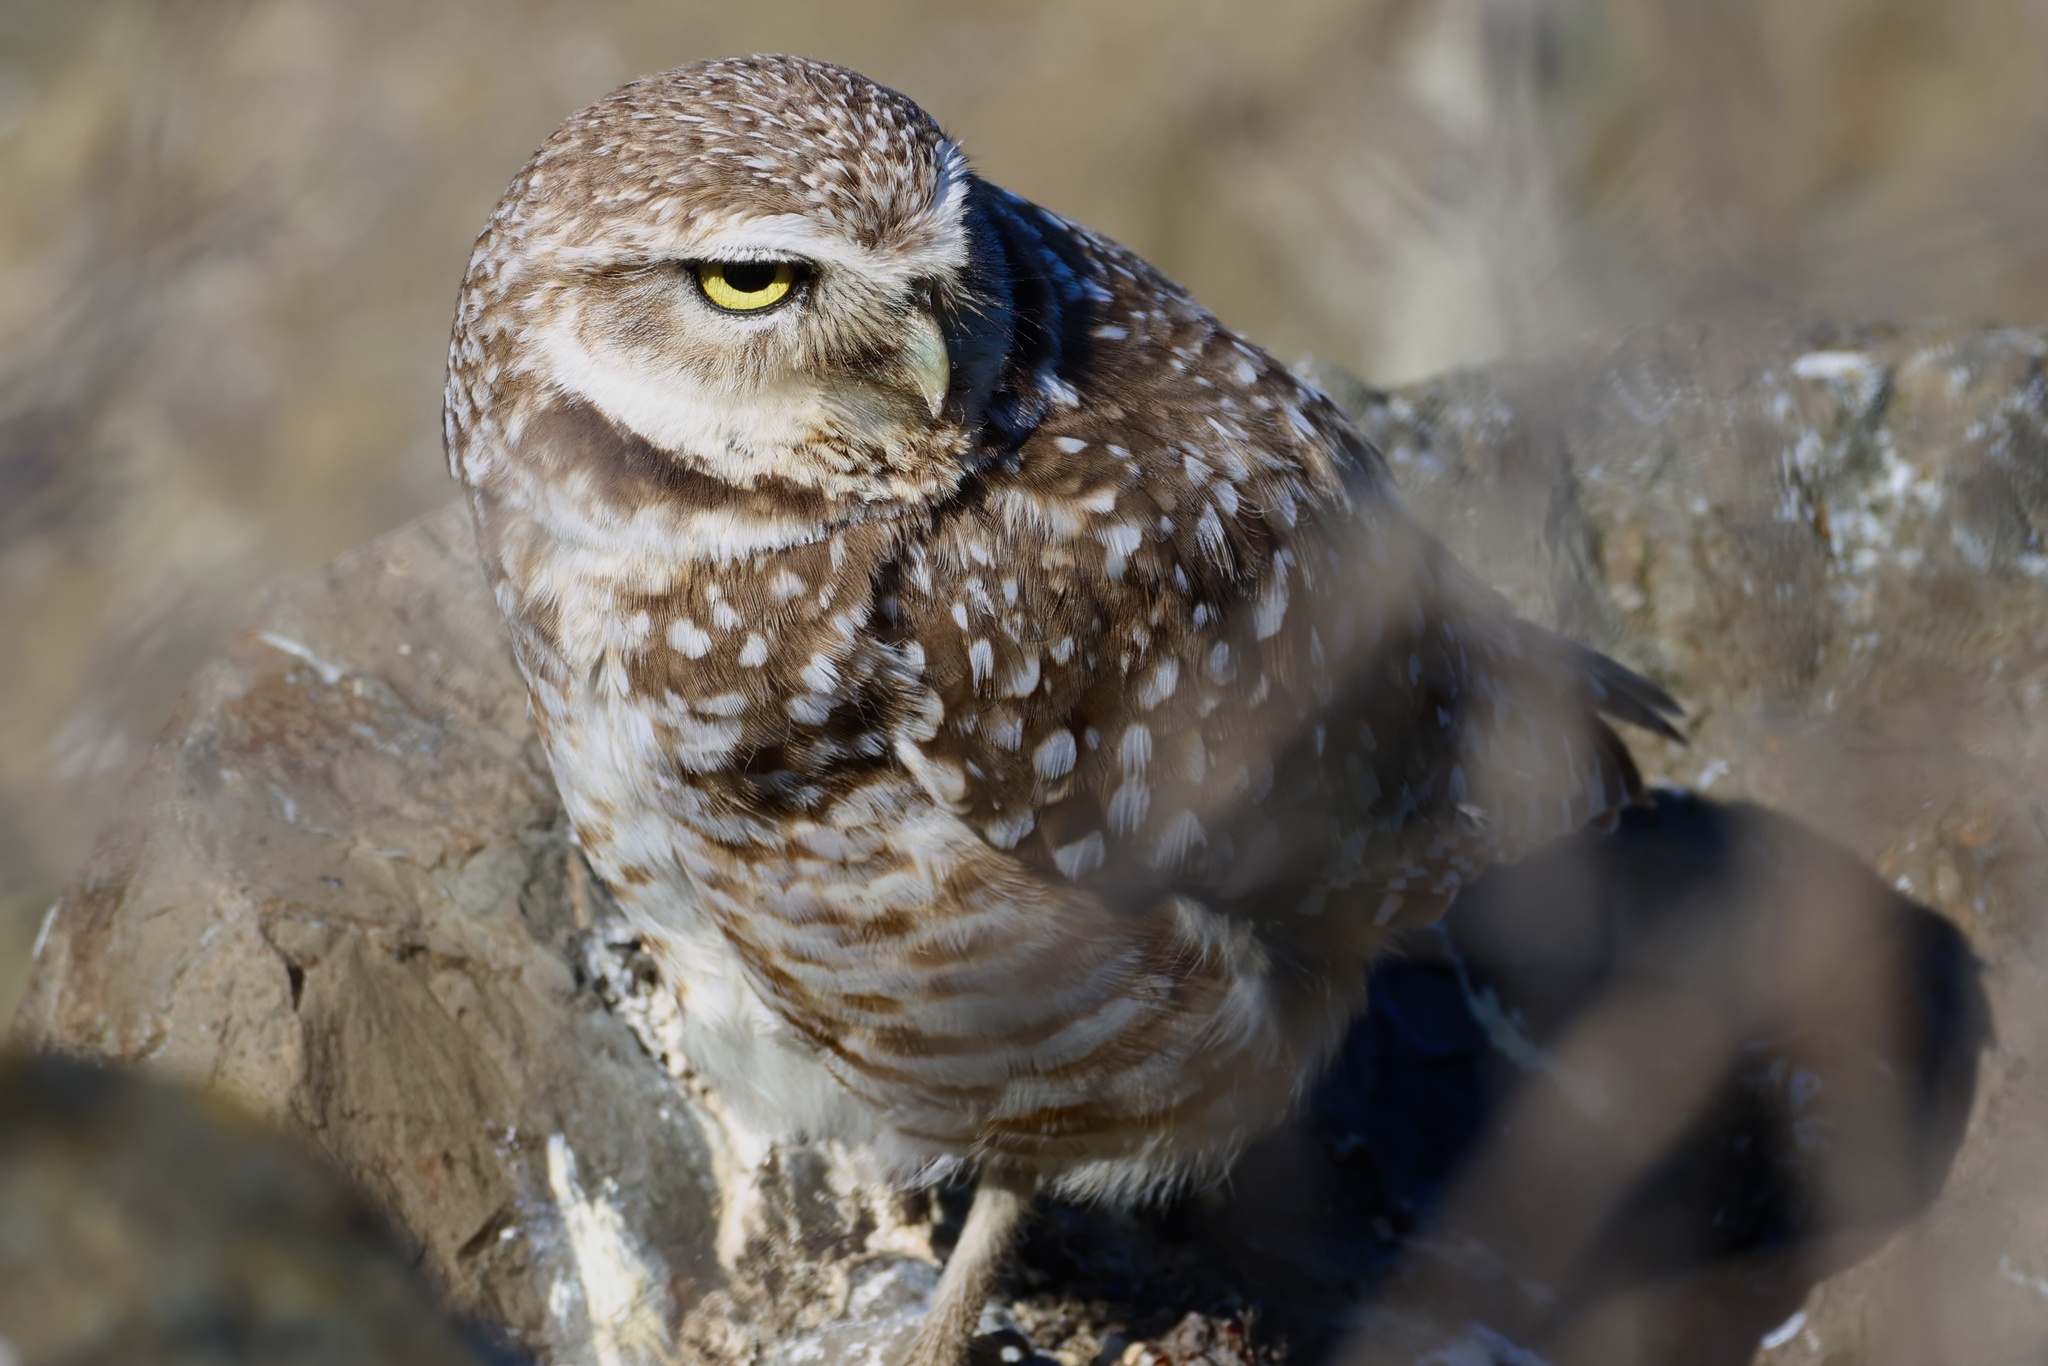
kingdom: Animalia
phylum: Chordata
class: Aves
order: Strigiformes
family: Strigidae
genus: Athene
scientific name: Athene cunicularia
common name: Burrowing owl
